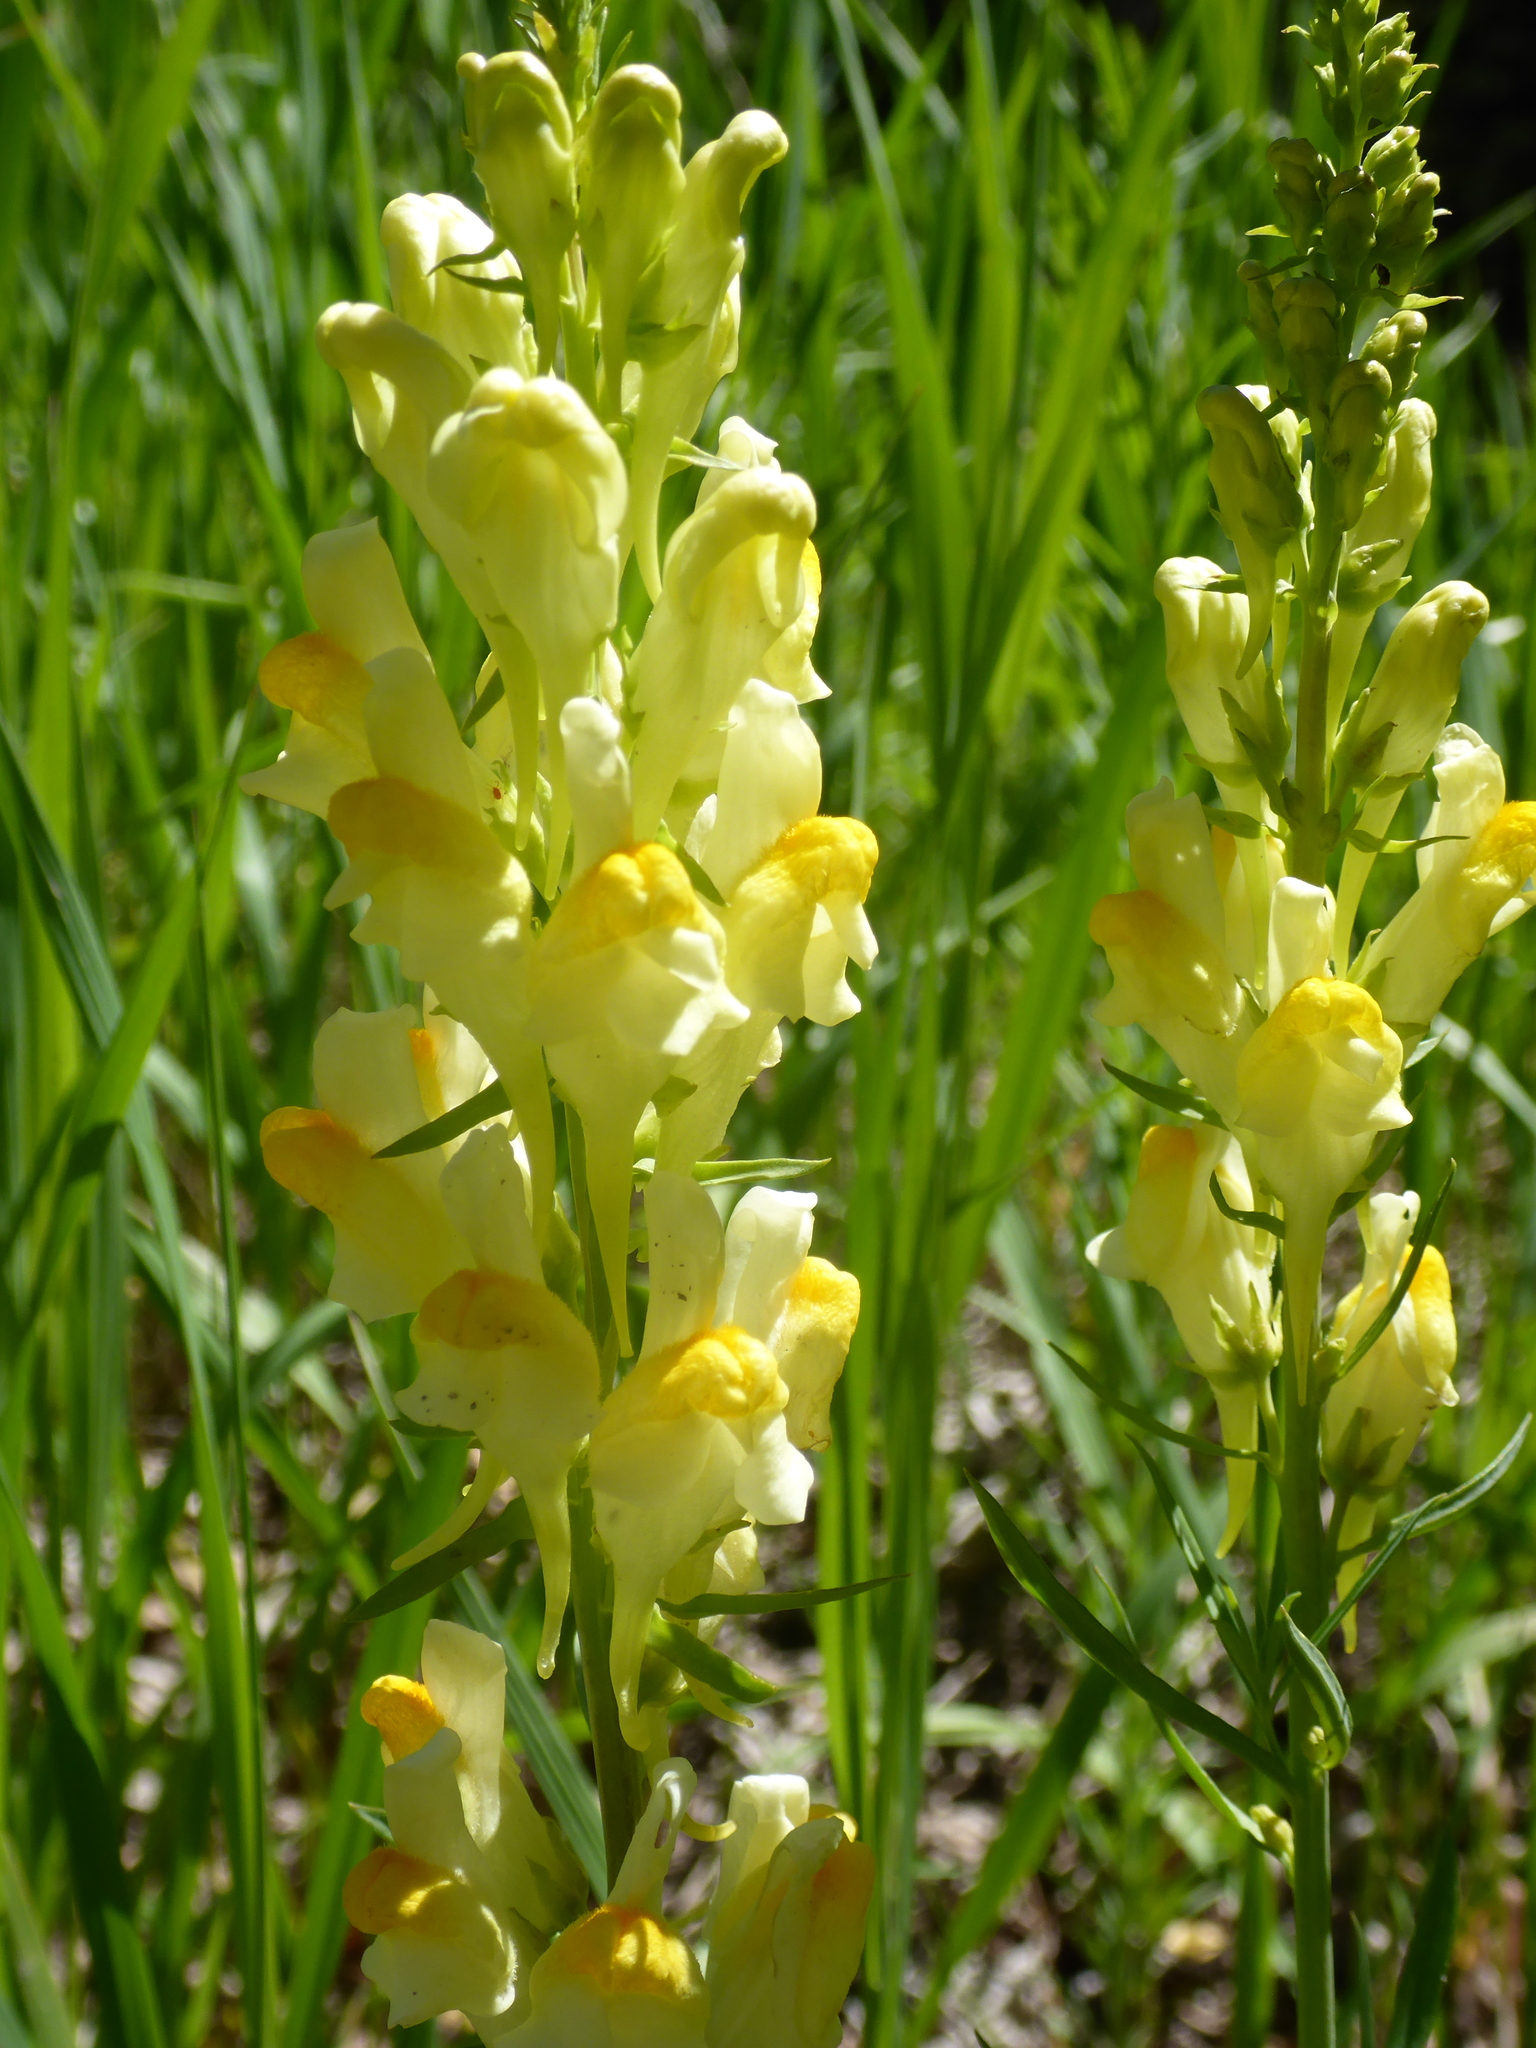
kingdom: Plantae
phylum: Tracheophyta
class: Magnoliopsida
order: Lamiales
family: Plantaginaceae
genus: Linaria
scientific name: Linaria vulgaris
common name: Butter and eggs
